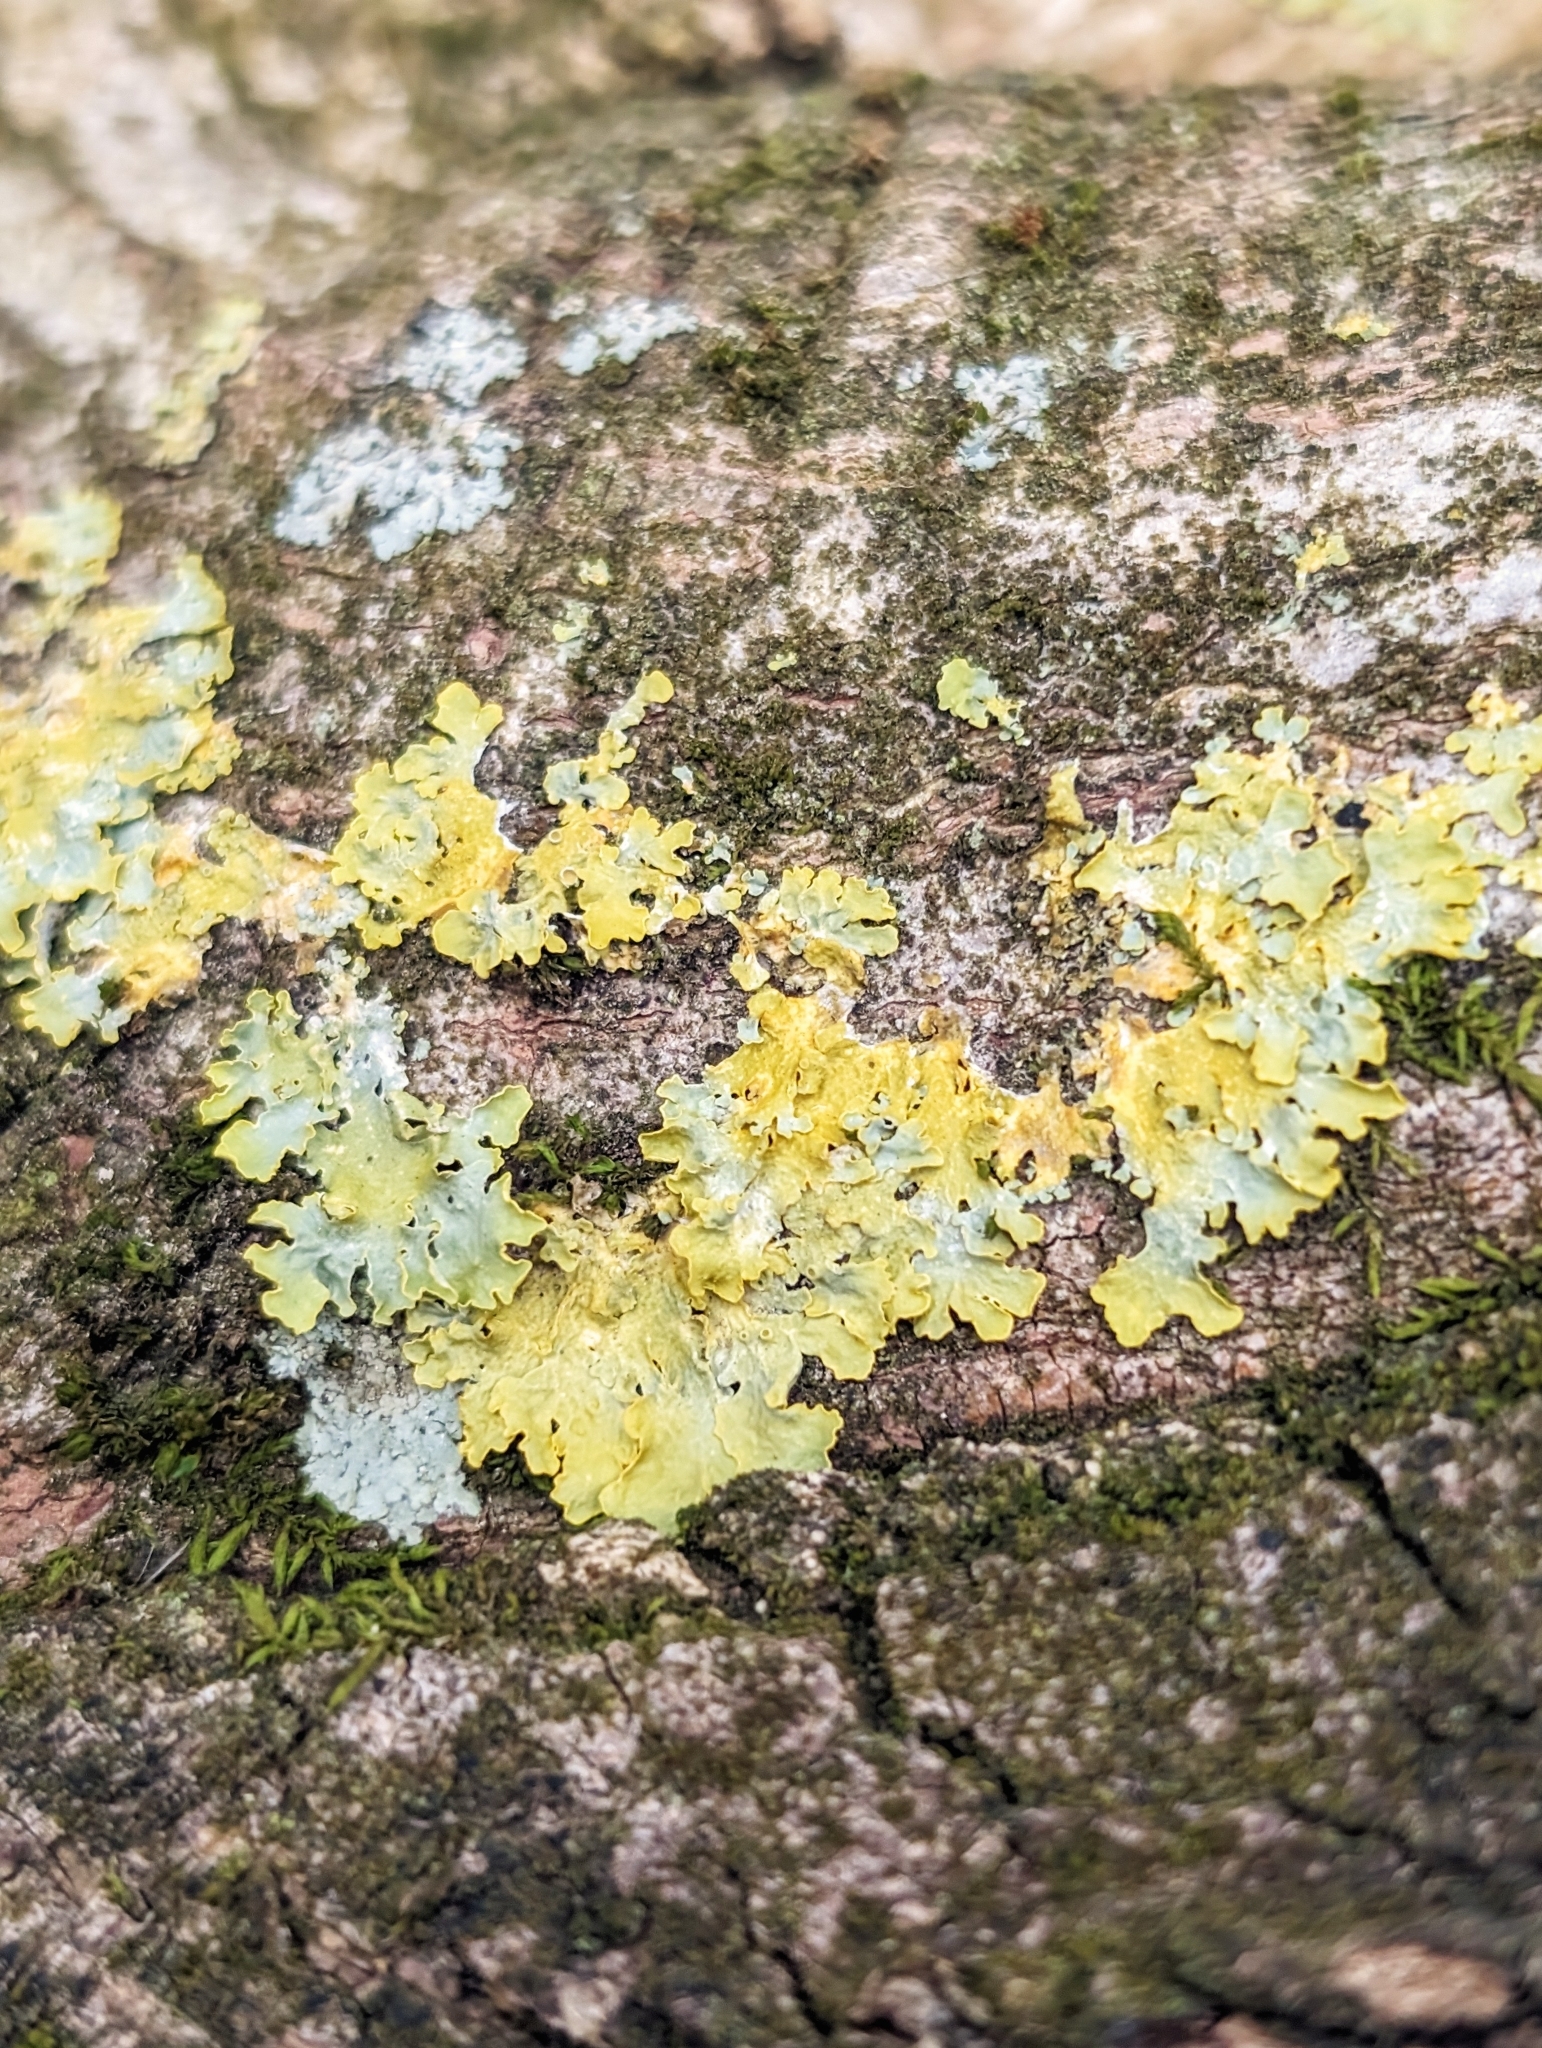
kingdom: Fungi
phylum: Ascomycota
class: Lecanoromycetes
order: Teloschistales
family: Teloschistaceae
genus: Xanthoria
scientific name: Xanthoria parietina
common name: Common orange lichen
